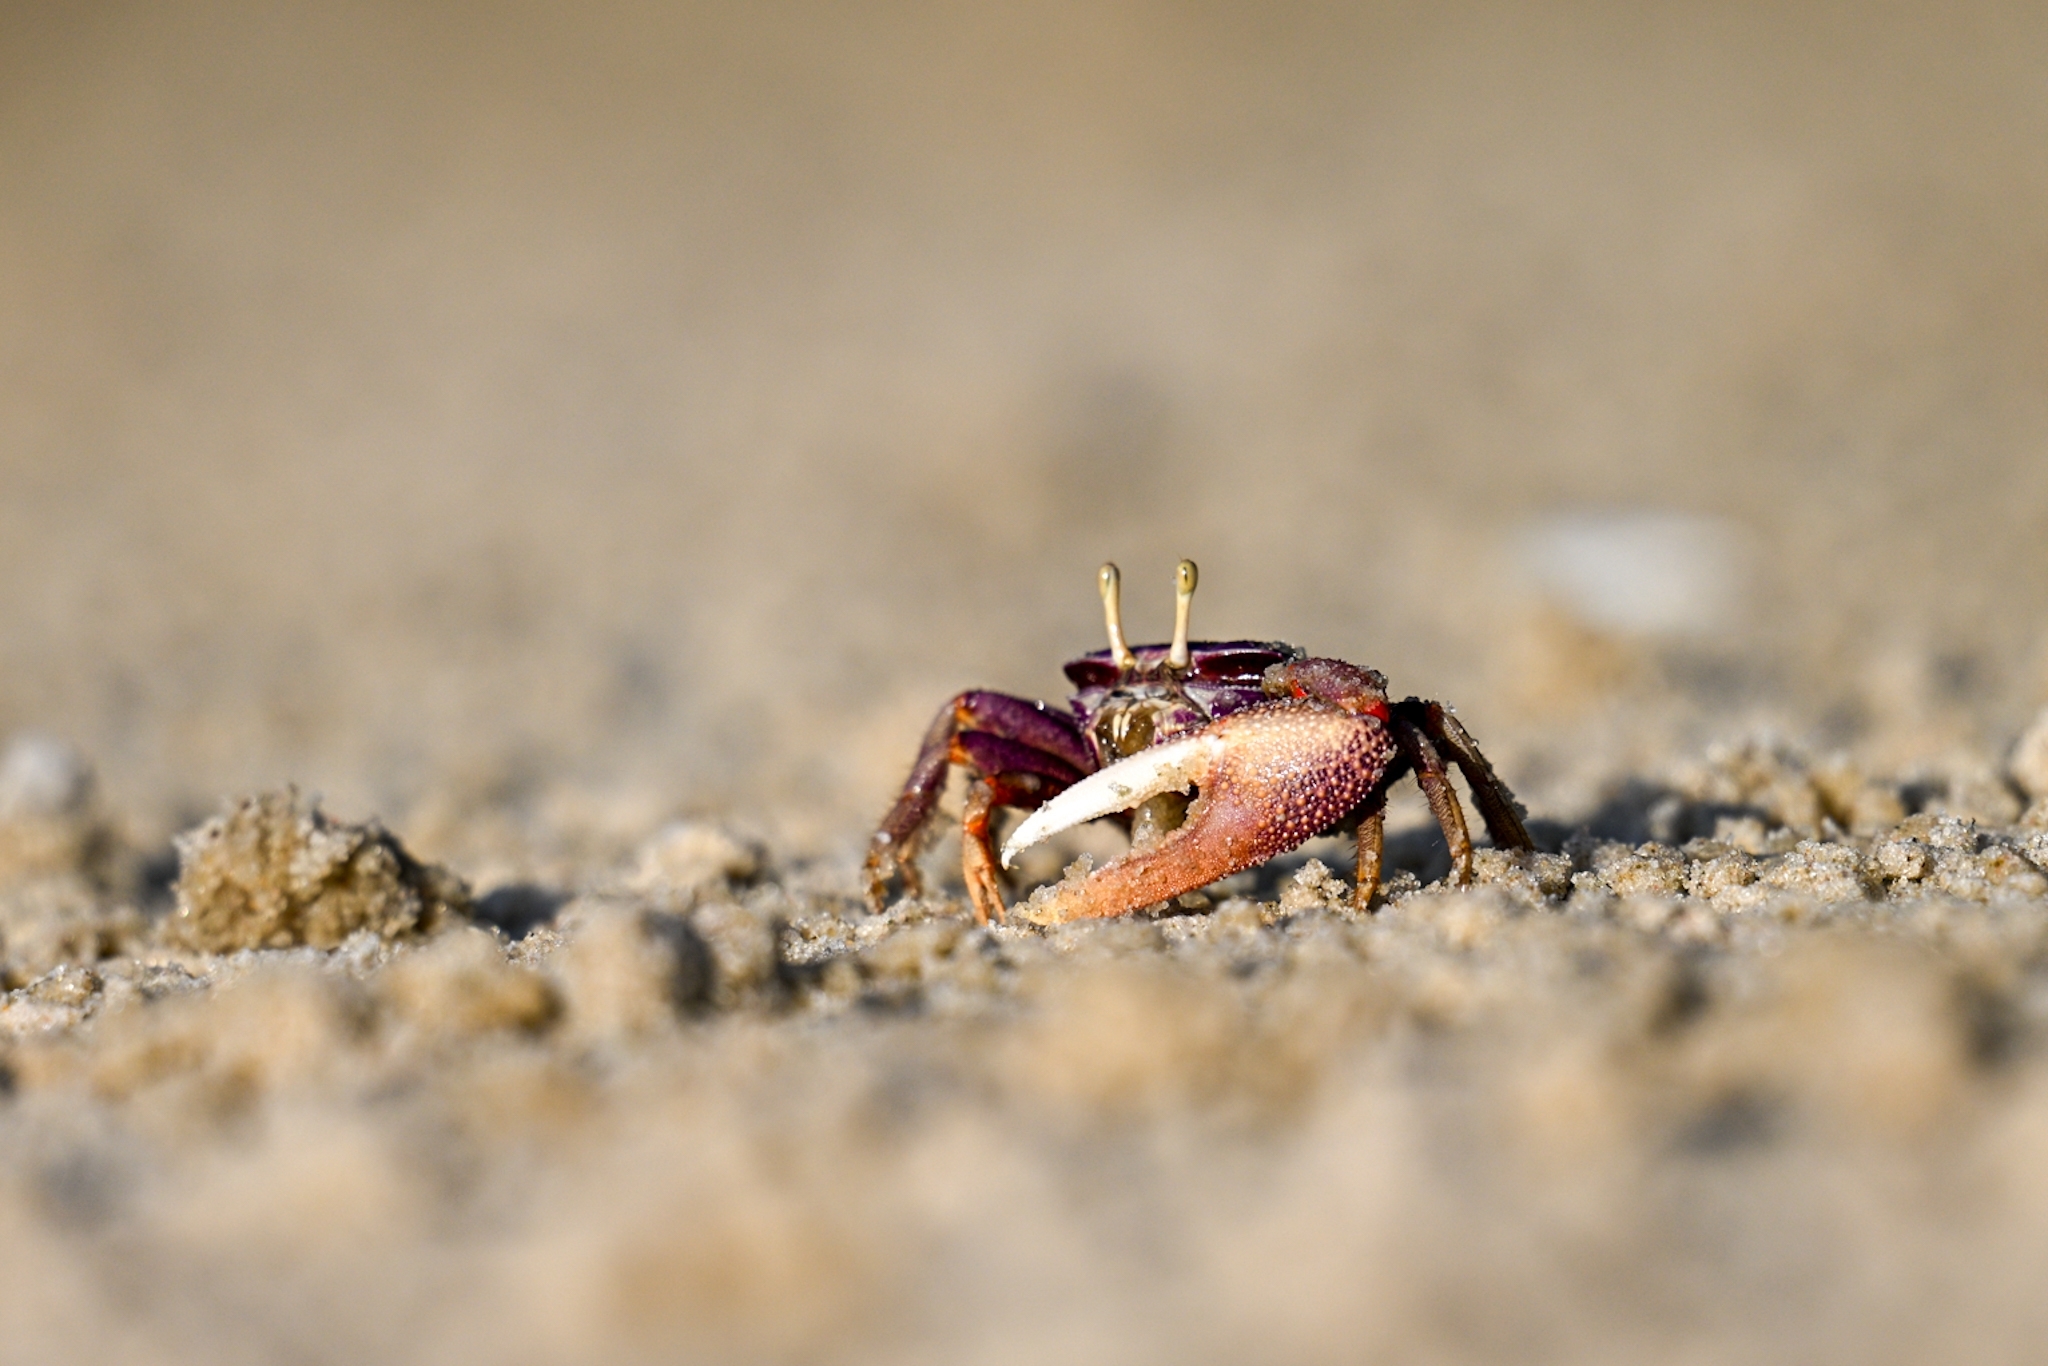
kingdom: Animalia
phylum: Arthropoda
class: Malacostraca
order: Decapoda
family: Ocypodidae
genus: Afruca
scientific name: Afruca tangeri
